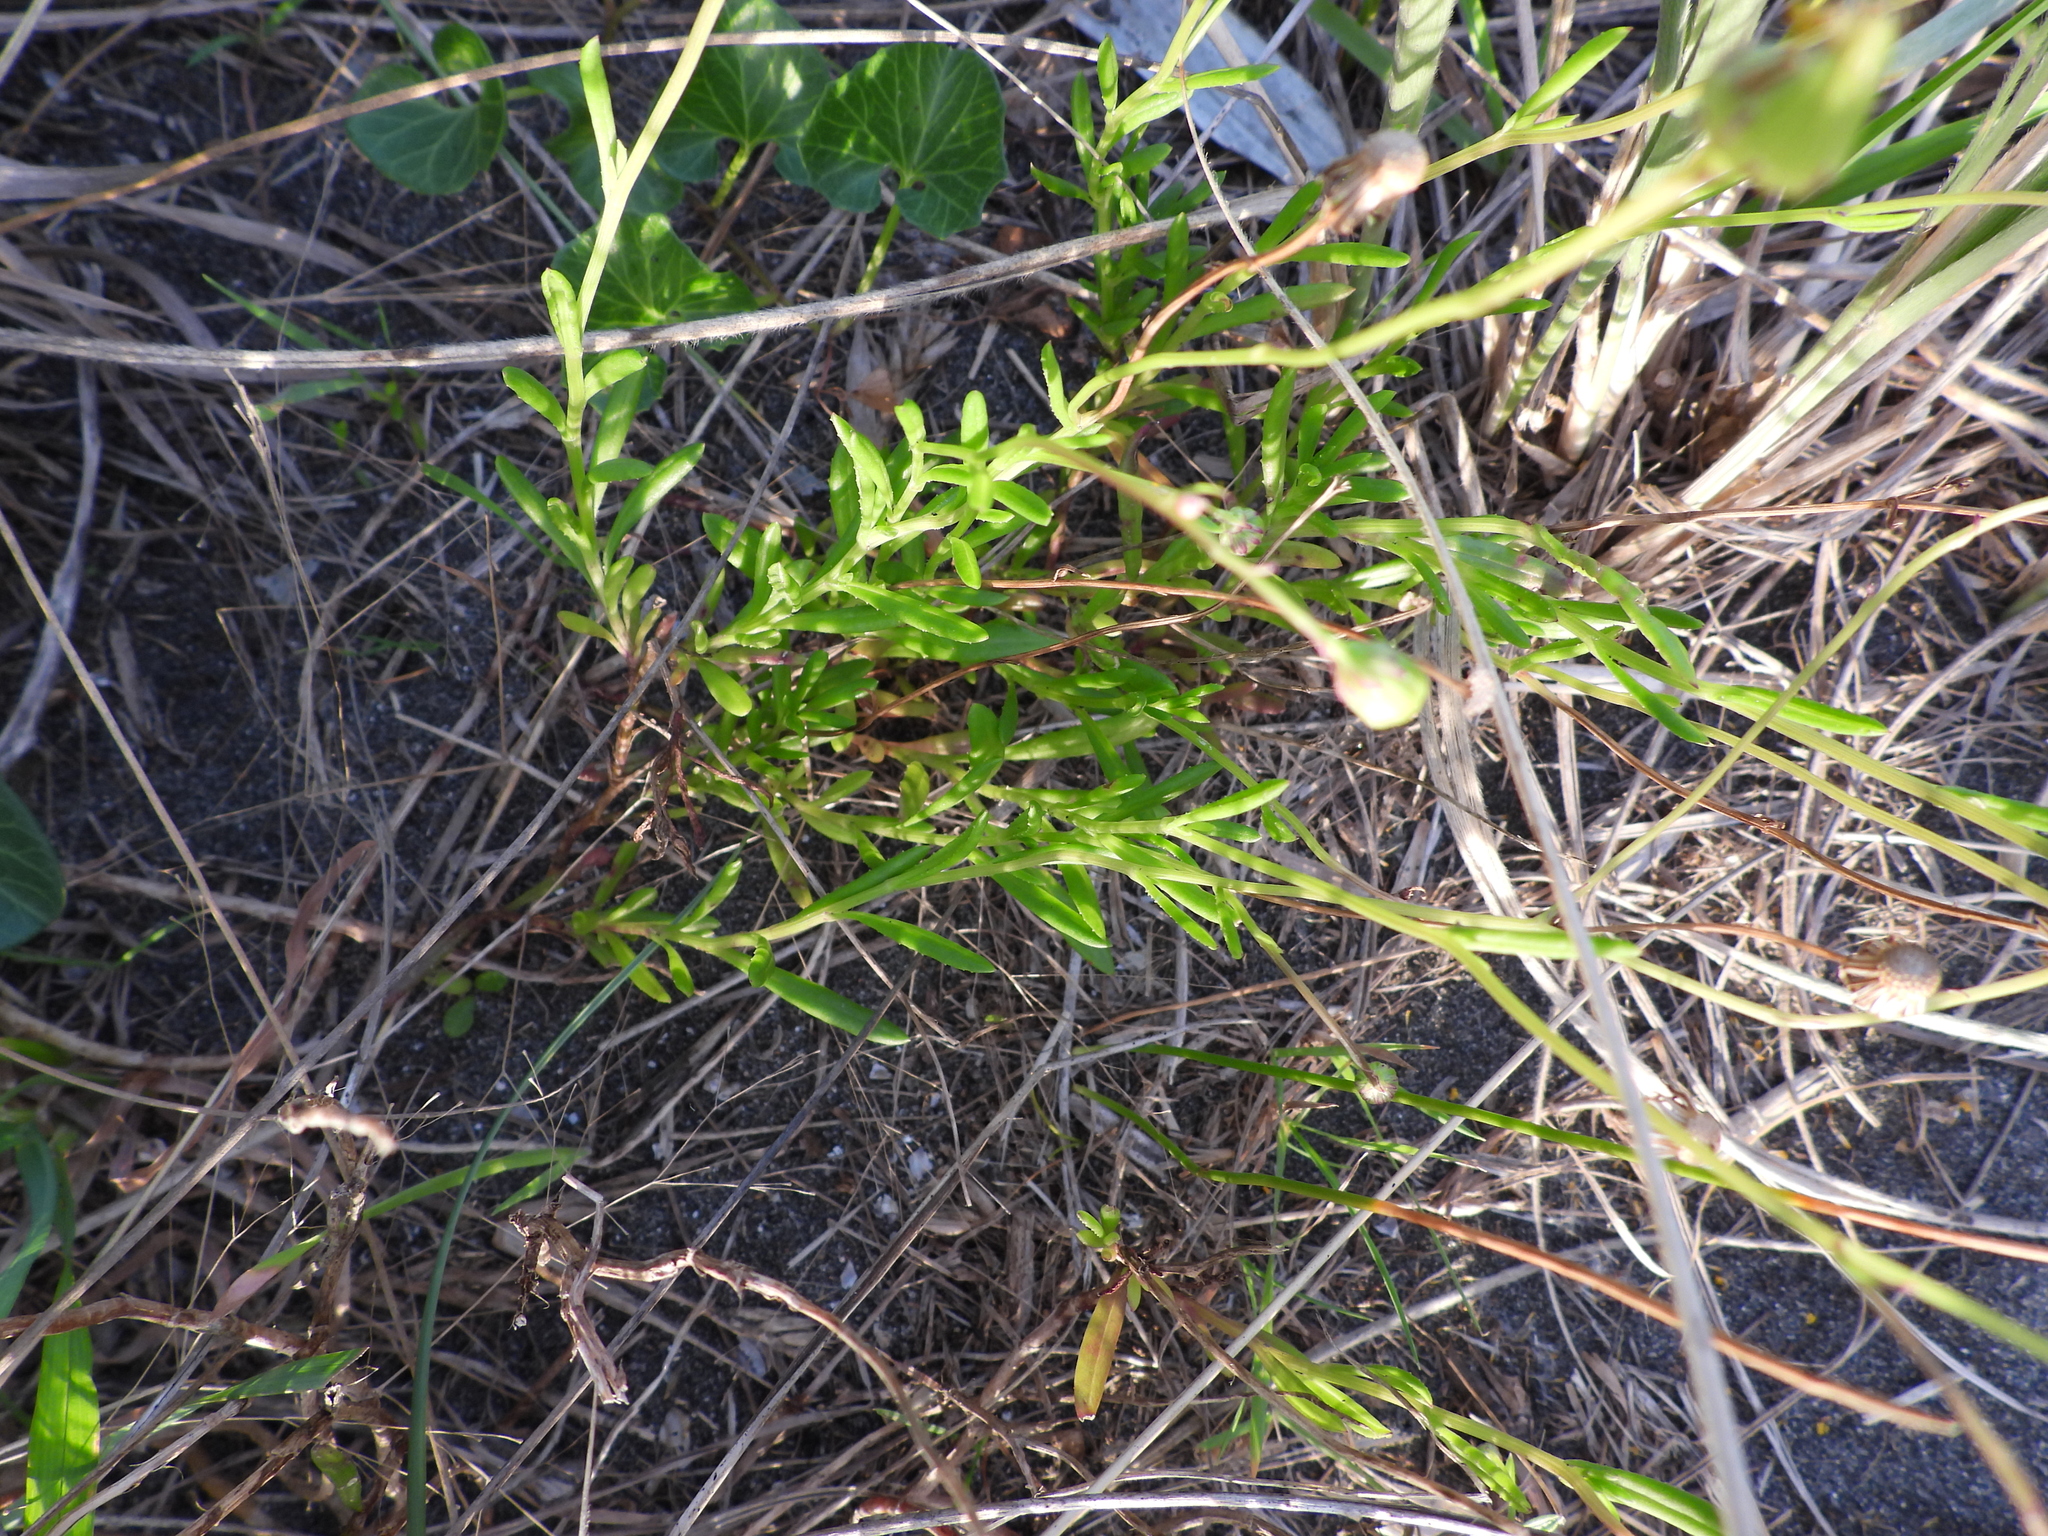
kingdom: Plantae
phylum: Tracheophyta
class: Magnoliopsida
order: Asterales
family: Asteraceae
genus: Senecio
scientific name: Senecio skirrhodon
